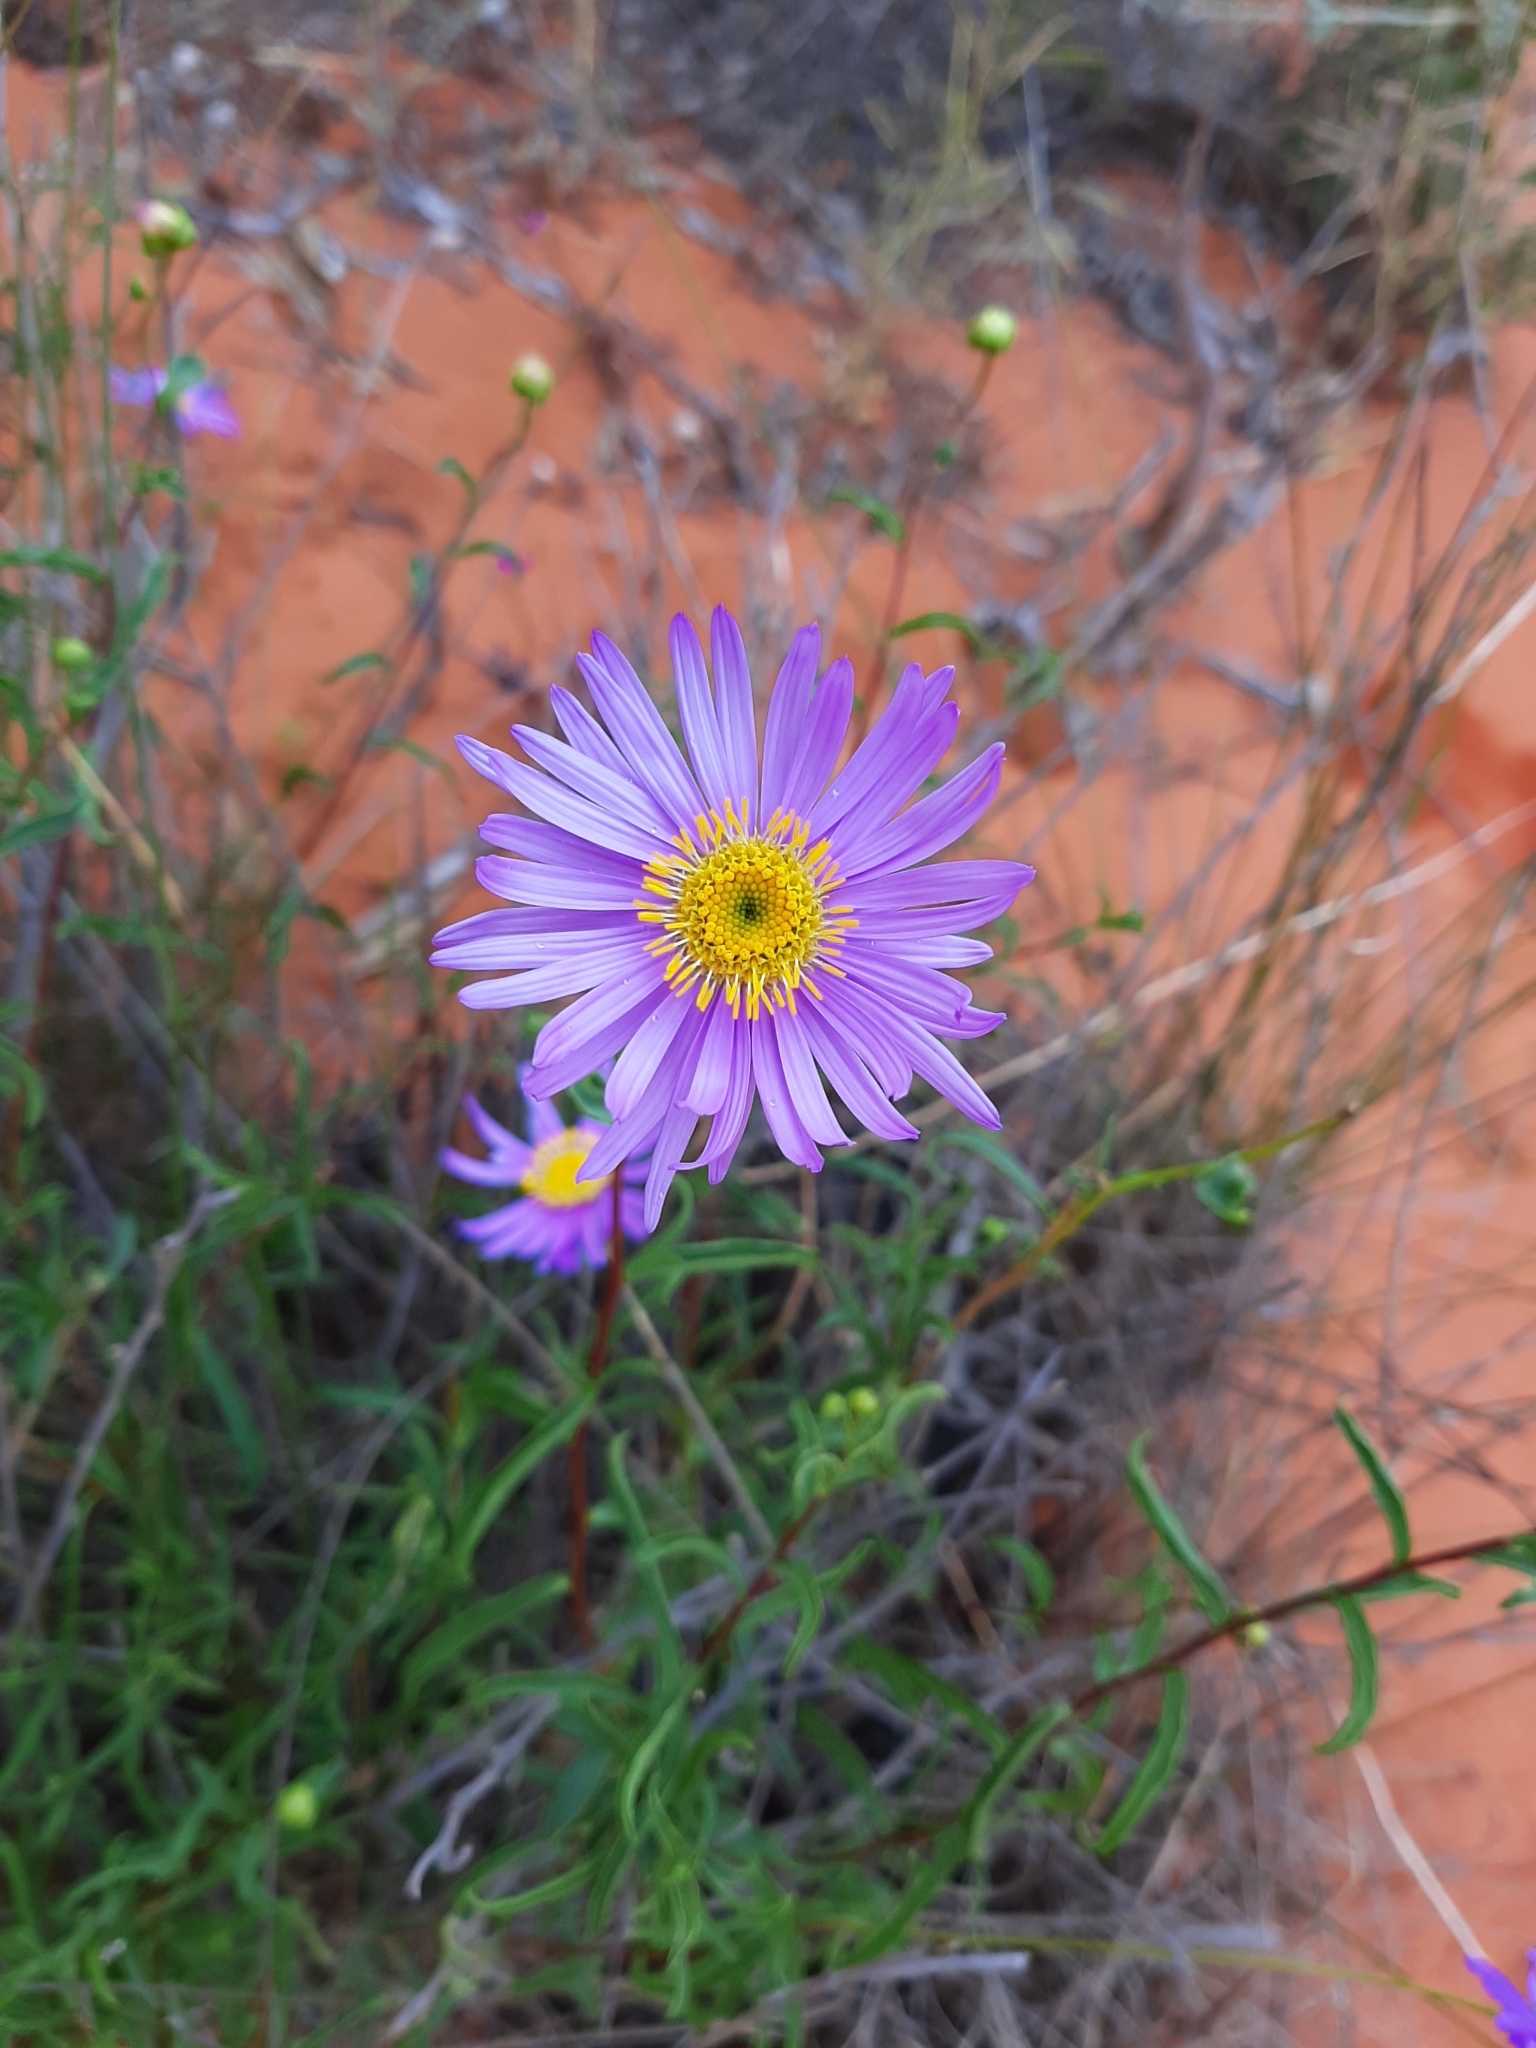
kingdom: Plantae
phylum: Tracheophyta
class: Magnoliopsida
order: Asterales
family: Asteraceae
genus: Pembertonia
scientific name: Pembertonia latisquamea
